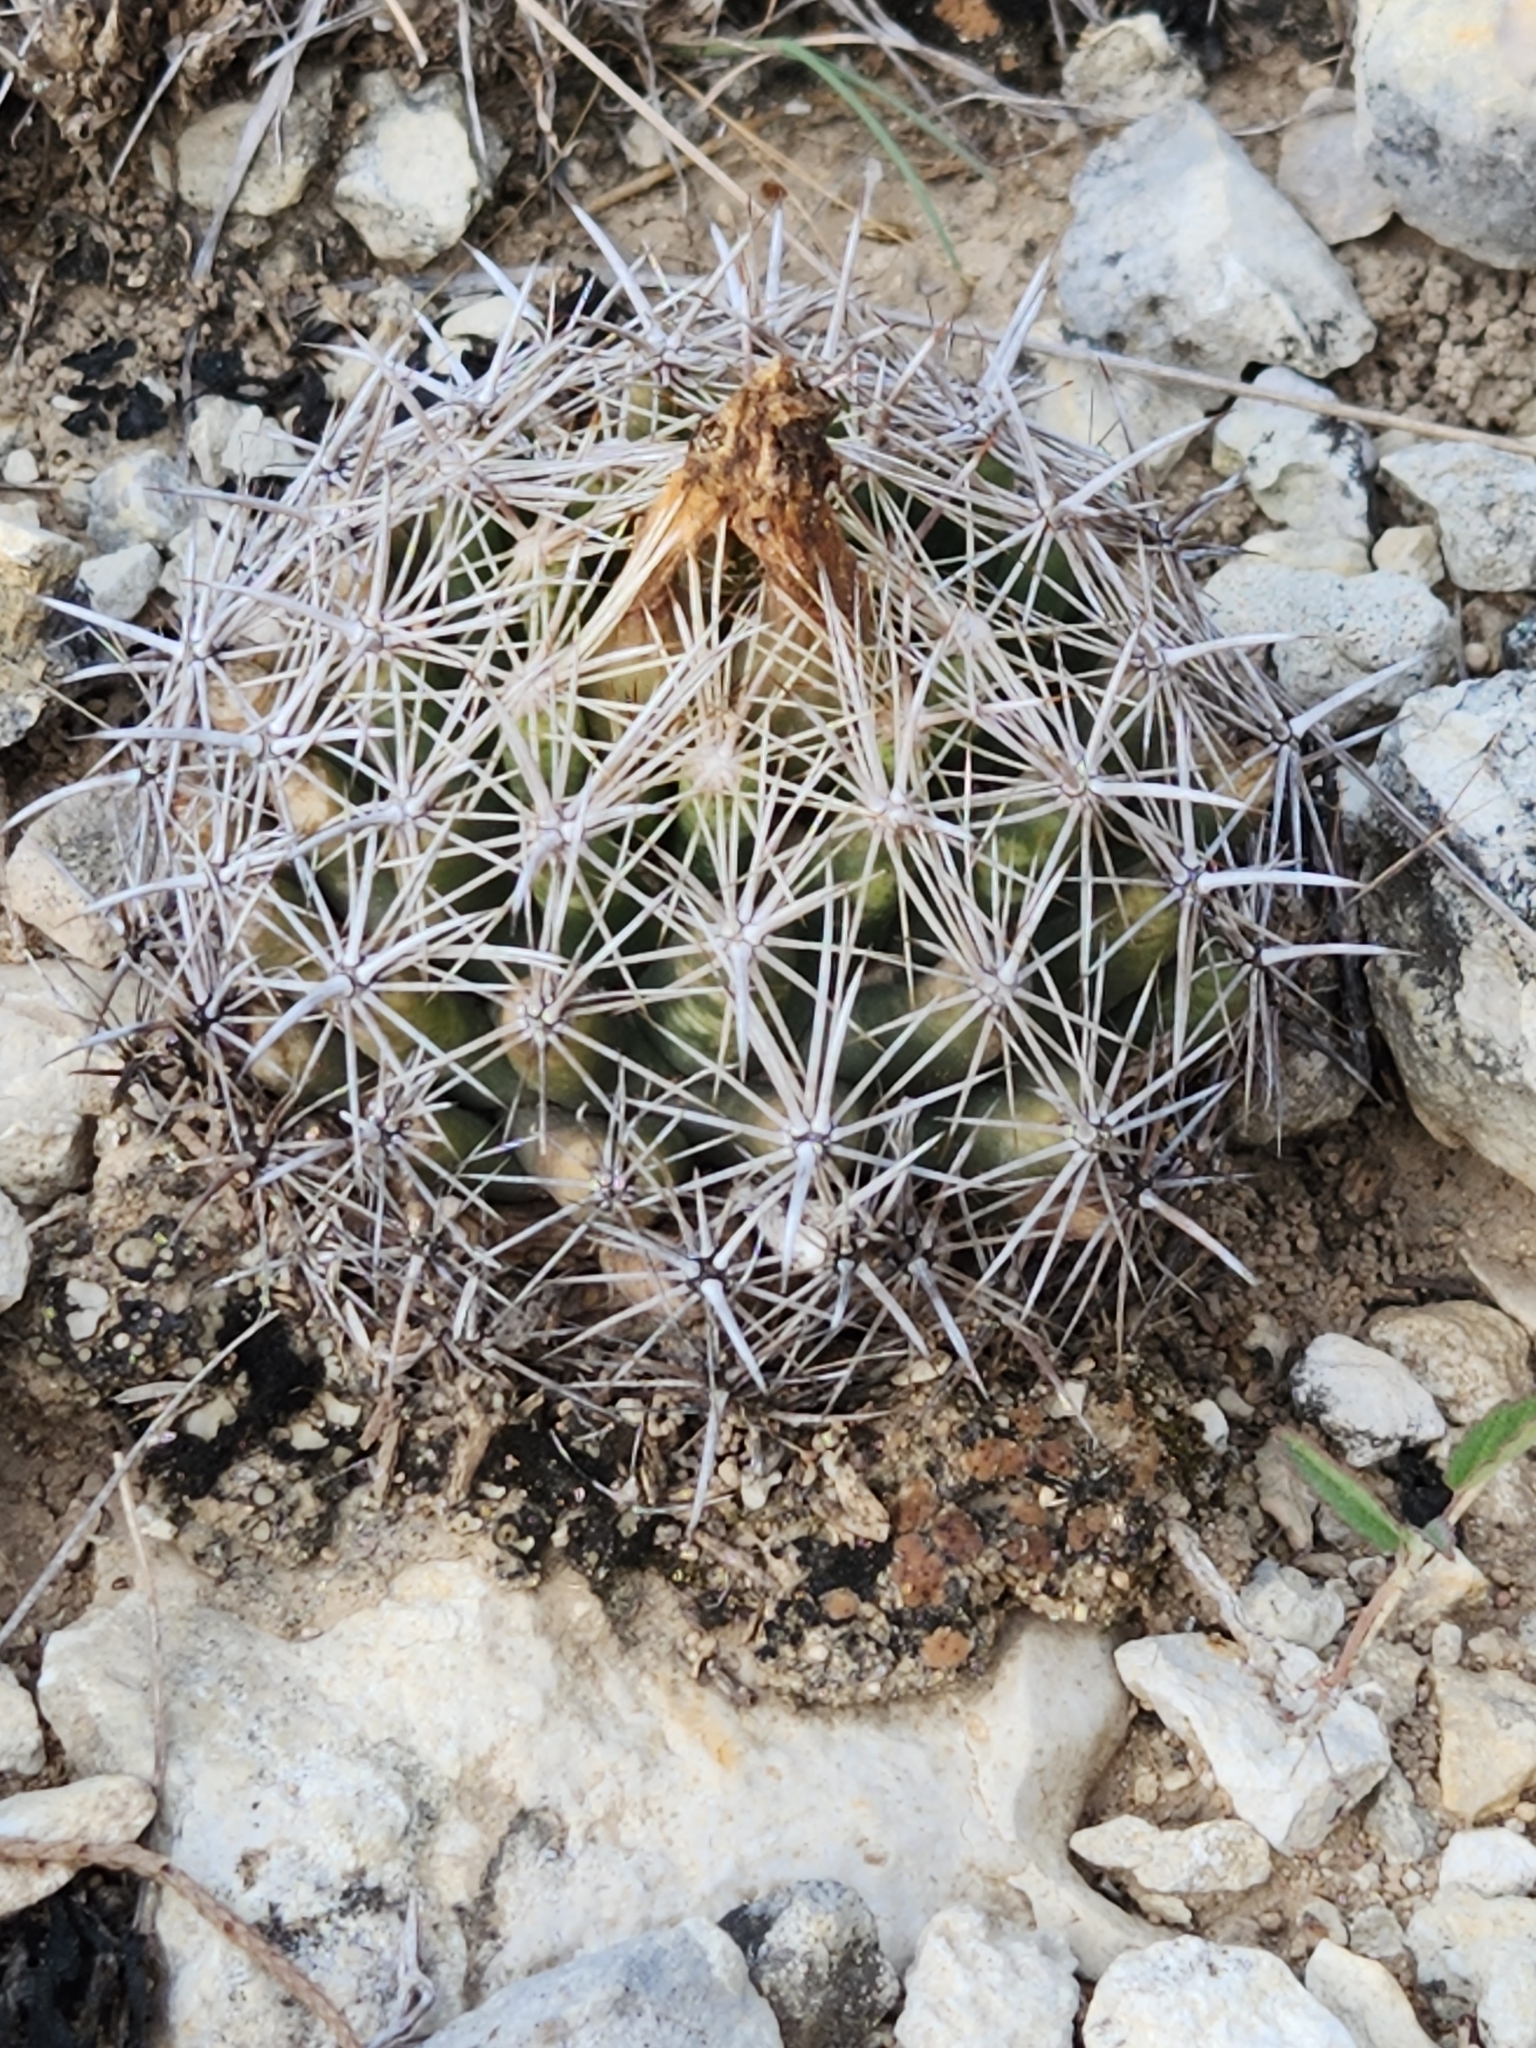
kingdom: Plantae
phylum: Tracheophyta
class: Magnoliopsida
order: Caryophyllales
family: Cactaceae
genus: Coryphantha
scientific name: Coryphantha sulcata
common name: Finger cactus
